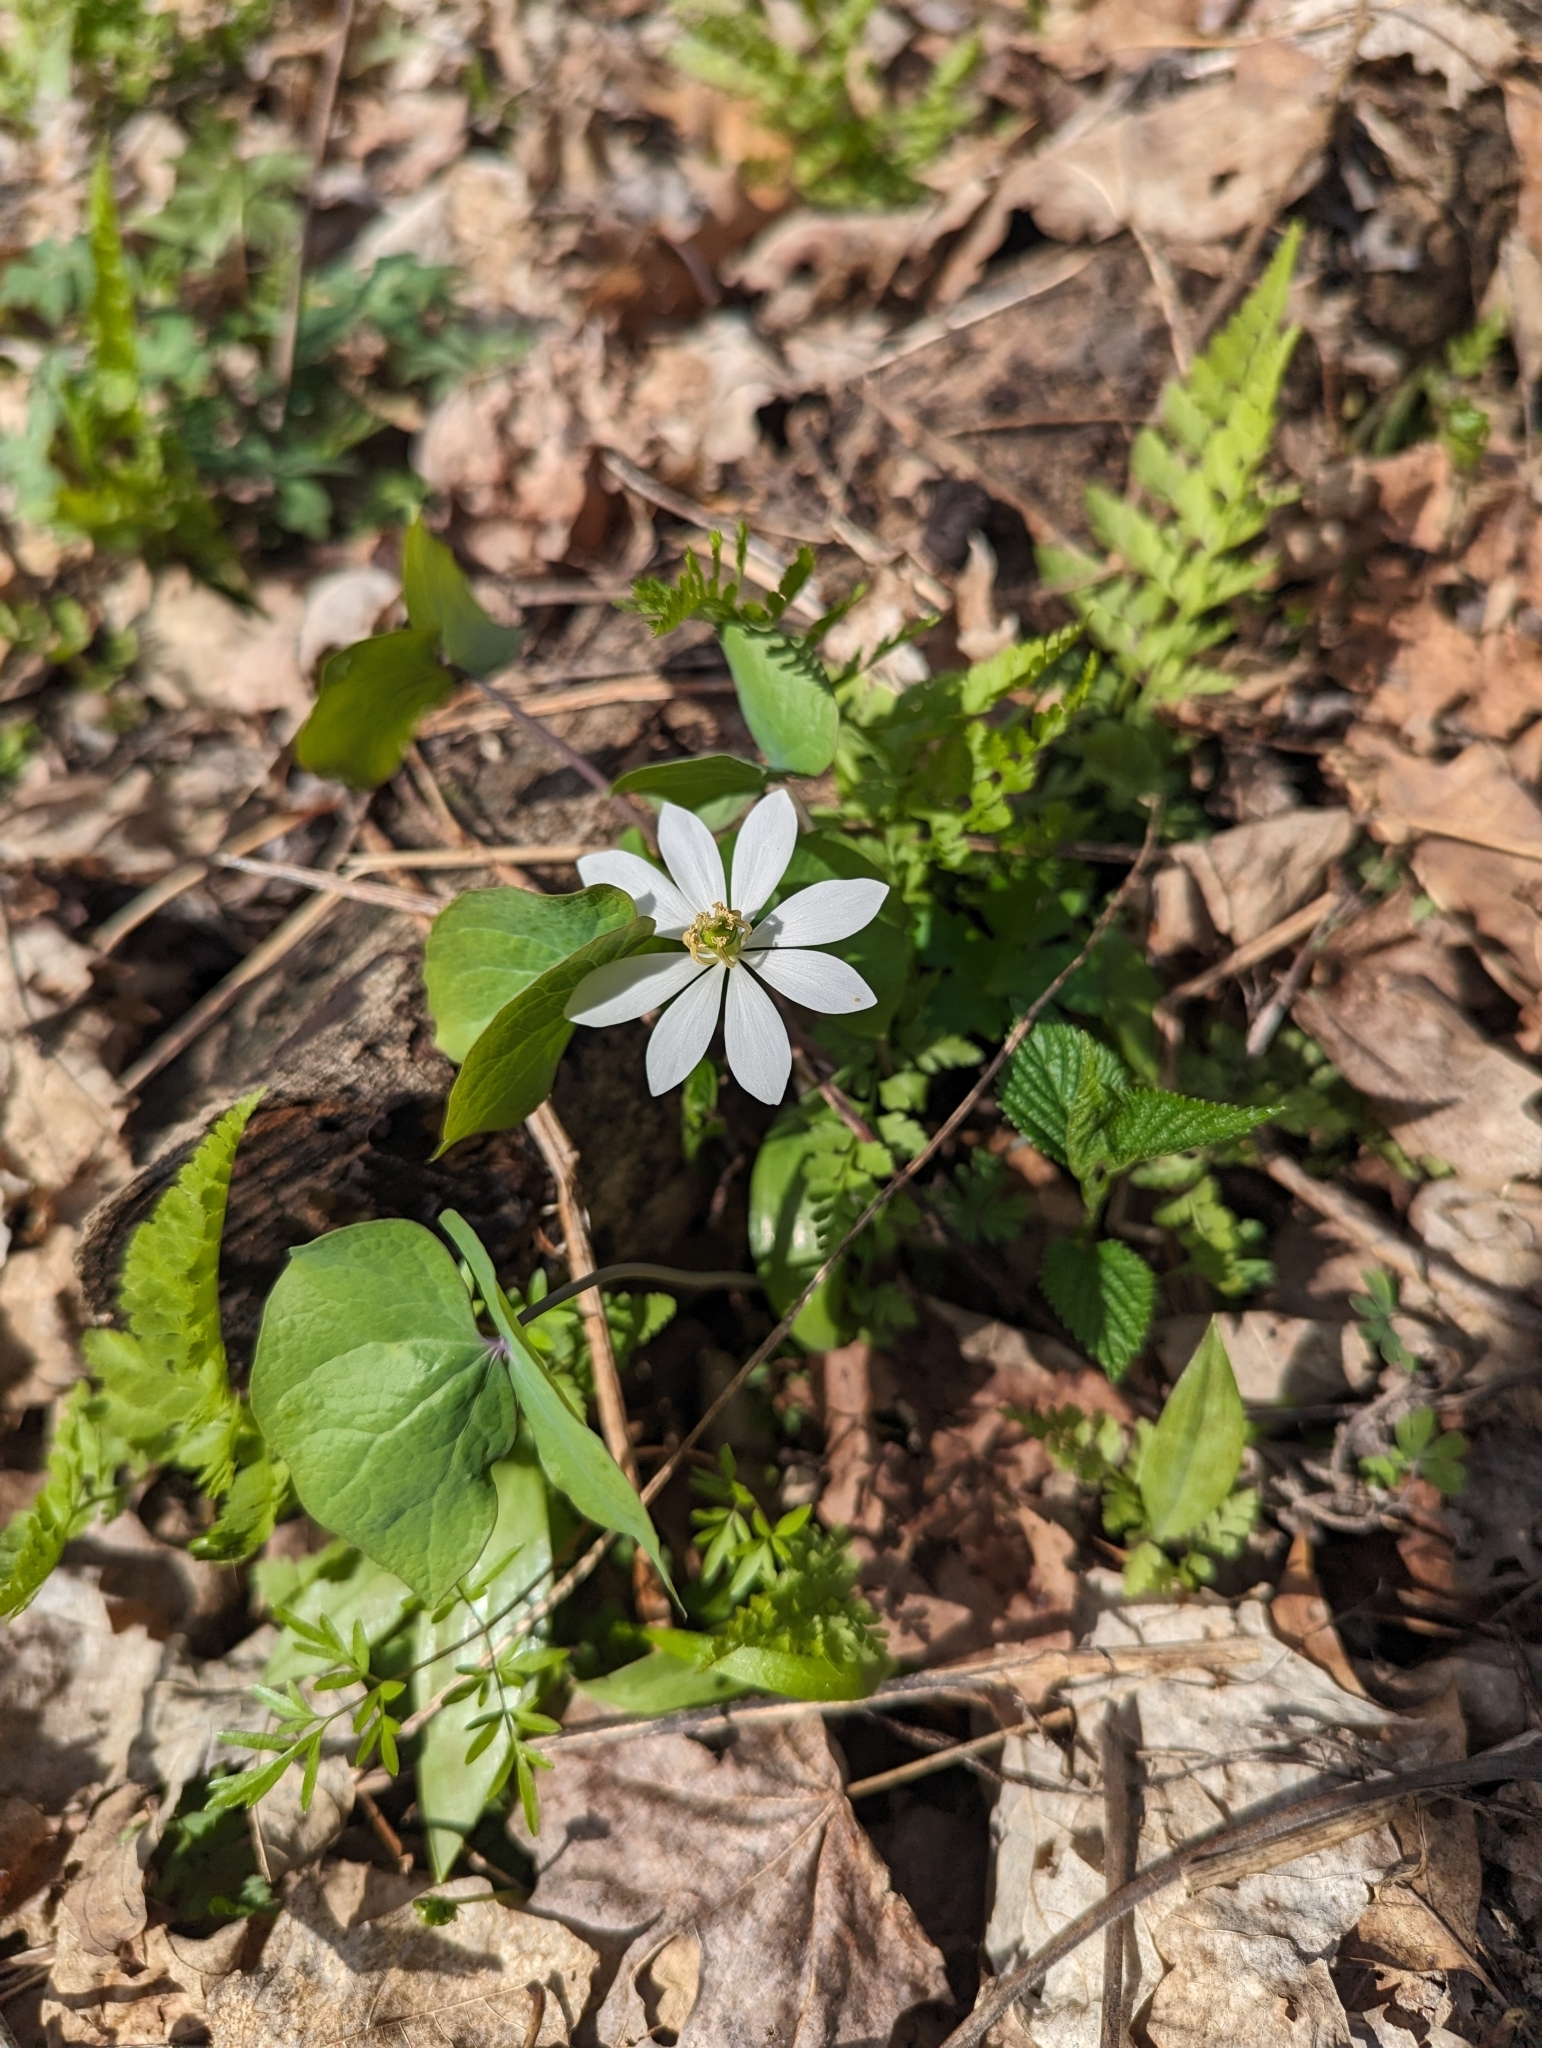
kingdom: Plantae
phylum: Tracheophyta
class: Magnoliopsida
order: Ranunculales
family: Berberidaceae
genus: Jeffersonia
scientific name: Jeffersonia diphylla
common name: Rheumatism-root
